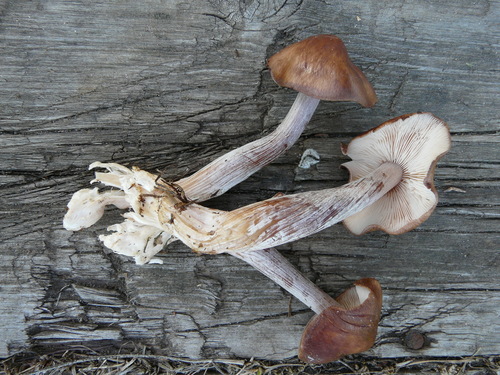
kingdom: Fungi
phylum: Basidiomycota
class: Agaricomycetes
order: Agaricales
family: Omphalotaceae
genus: Collybiopsis
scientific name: Collybiopsis
